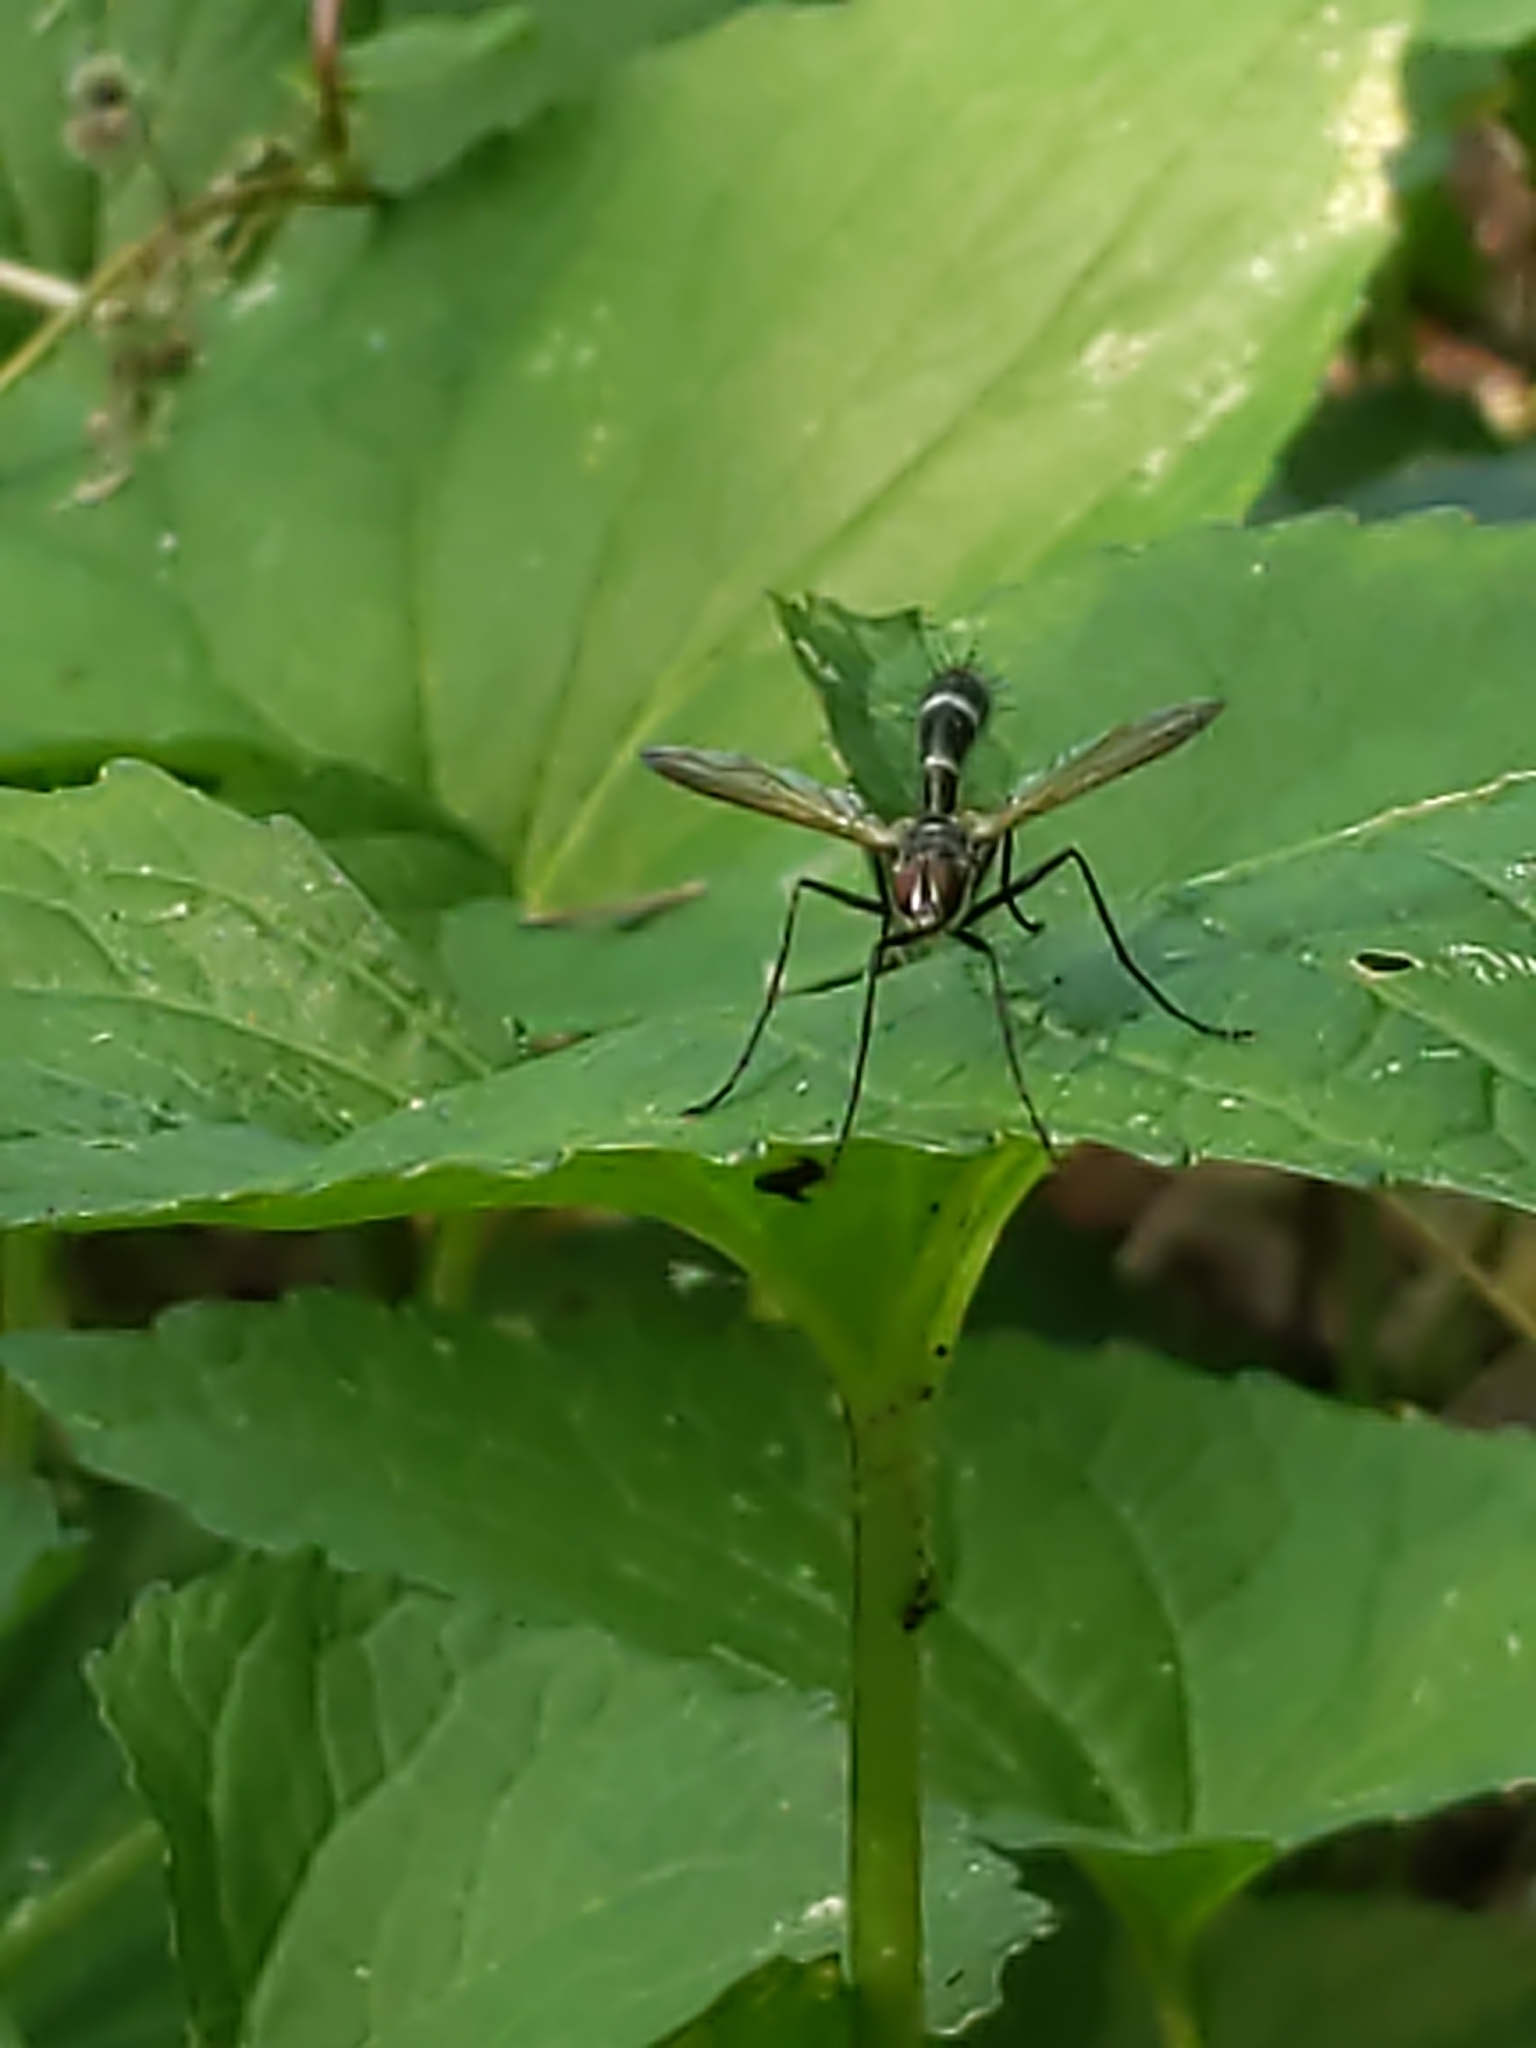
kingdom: Animalia
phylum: Arthropoda
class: Insecta
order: Diptera
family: Tachinidae
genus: Cordyligaster
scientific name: Cordyligaster septentrionalis
